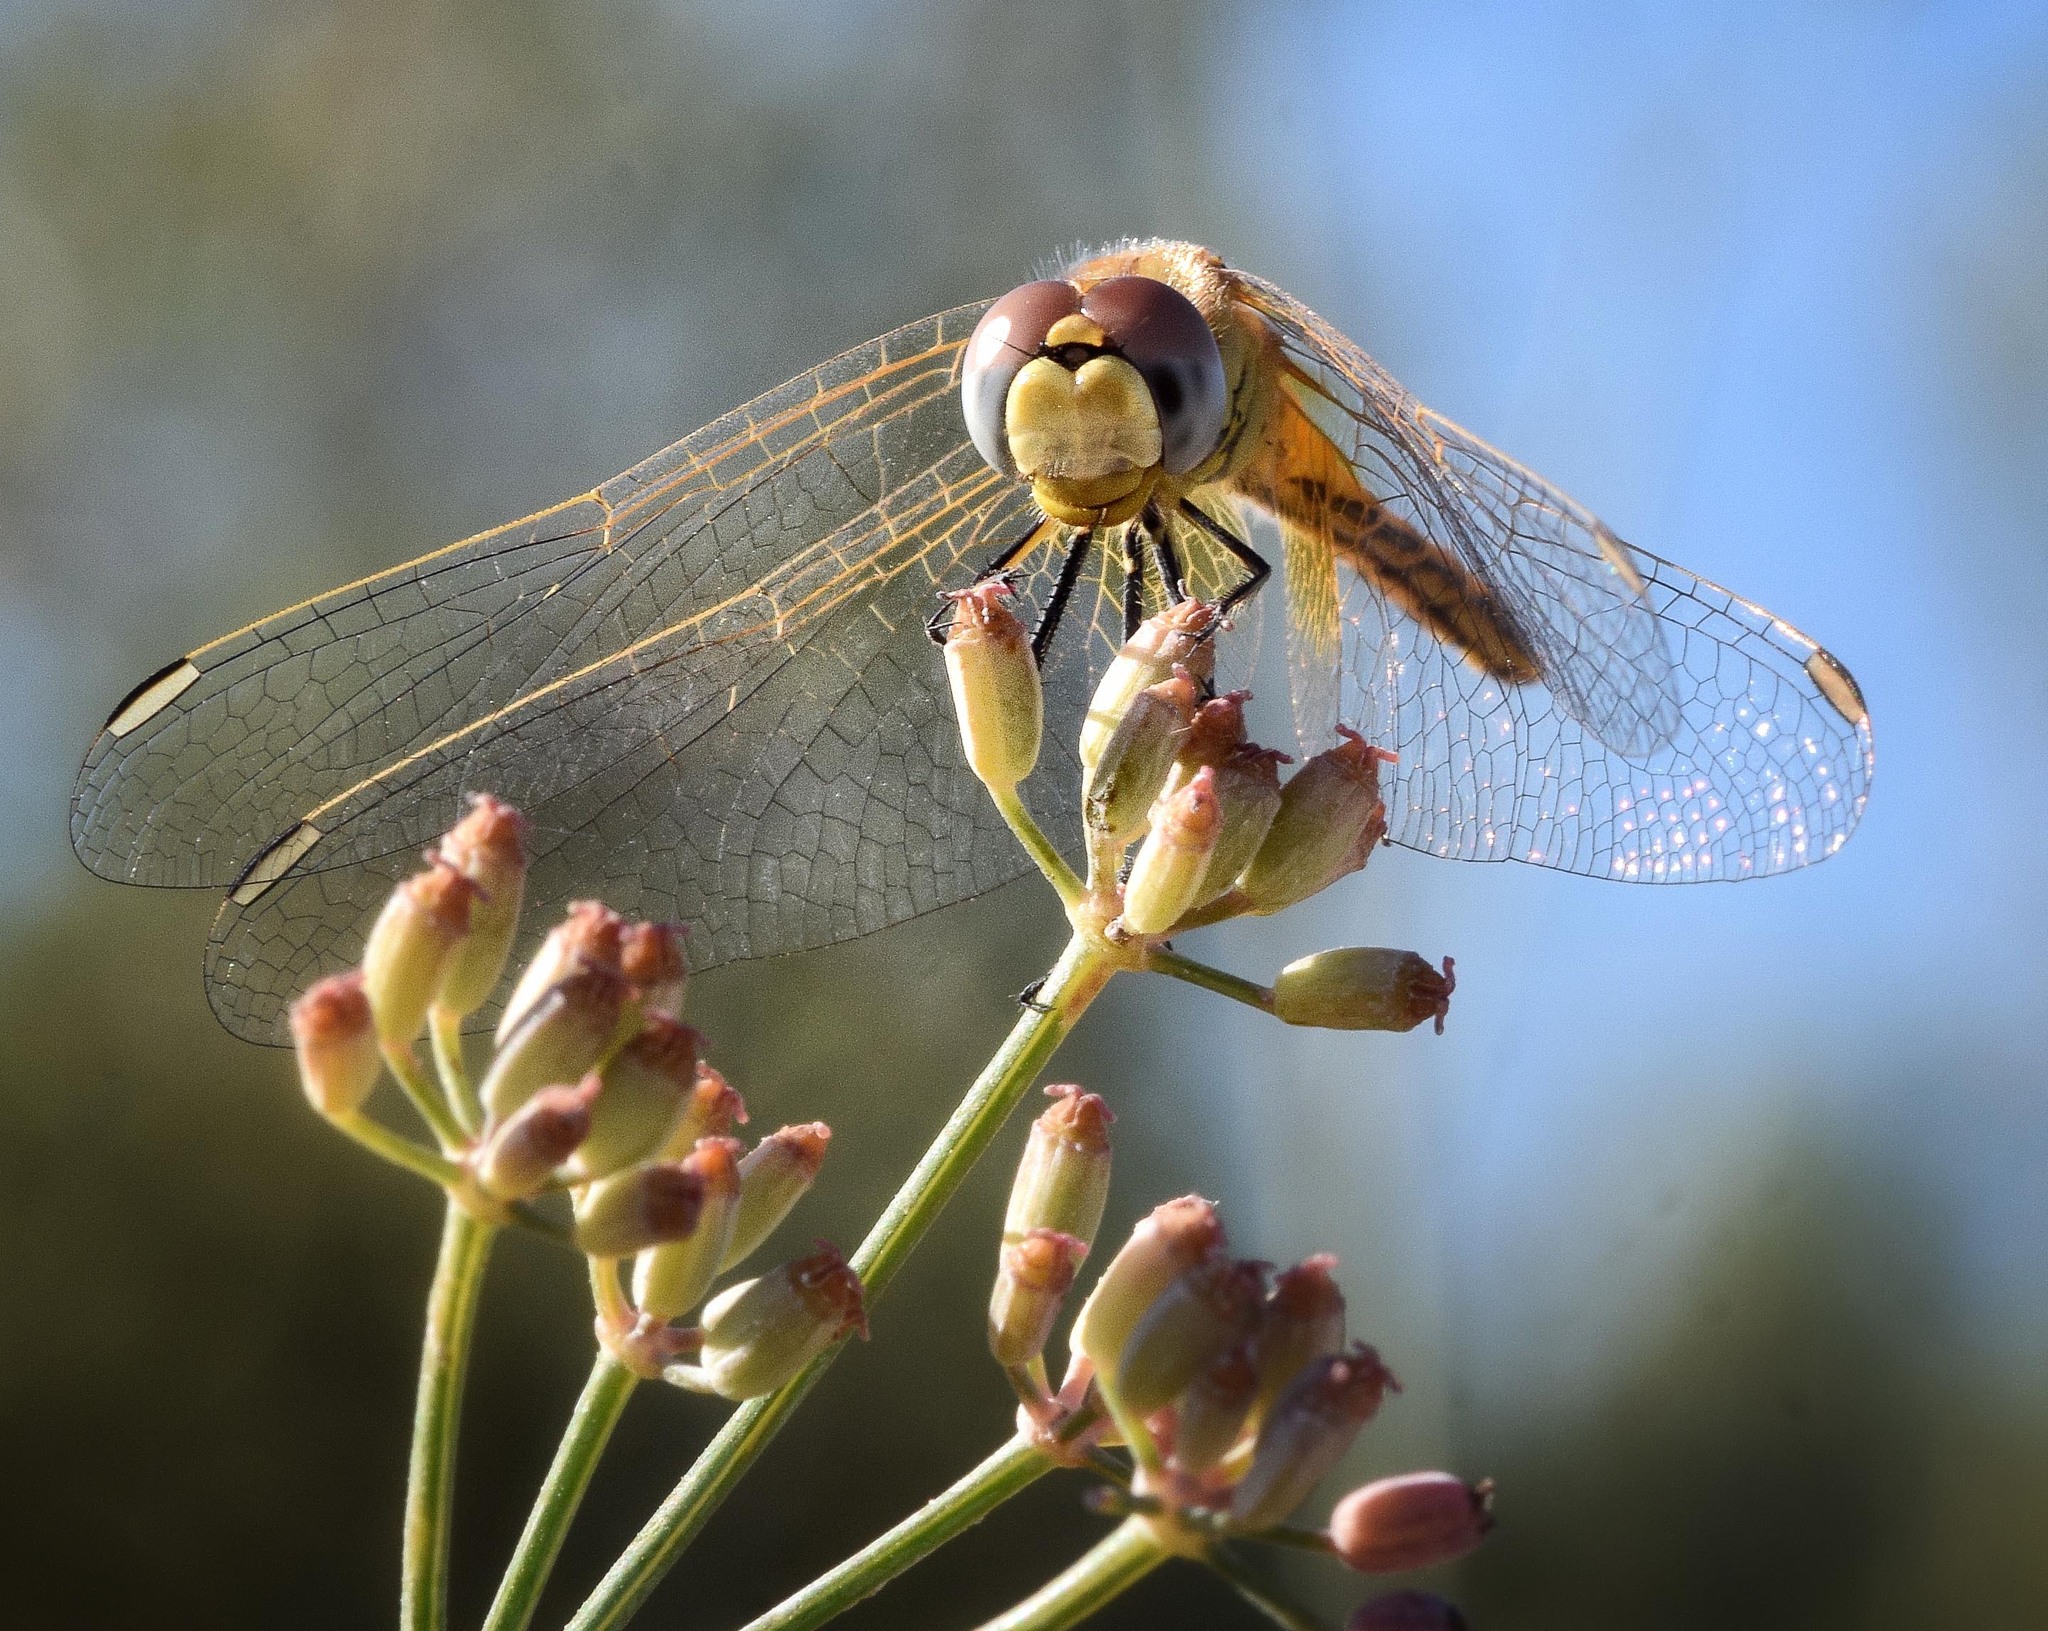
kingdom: Animalia
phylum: Arthropoda
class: Insecta
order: Odonata
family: Libellulidae
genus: Sympetrum
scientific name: Sympetrum fonscolombii
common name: Red-veined darter
